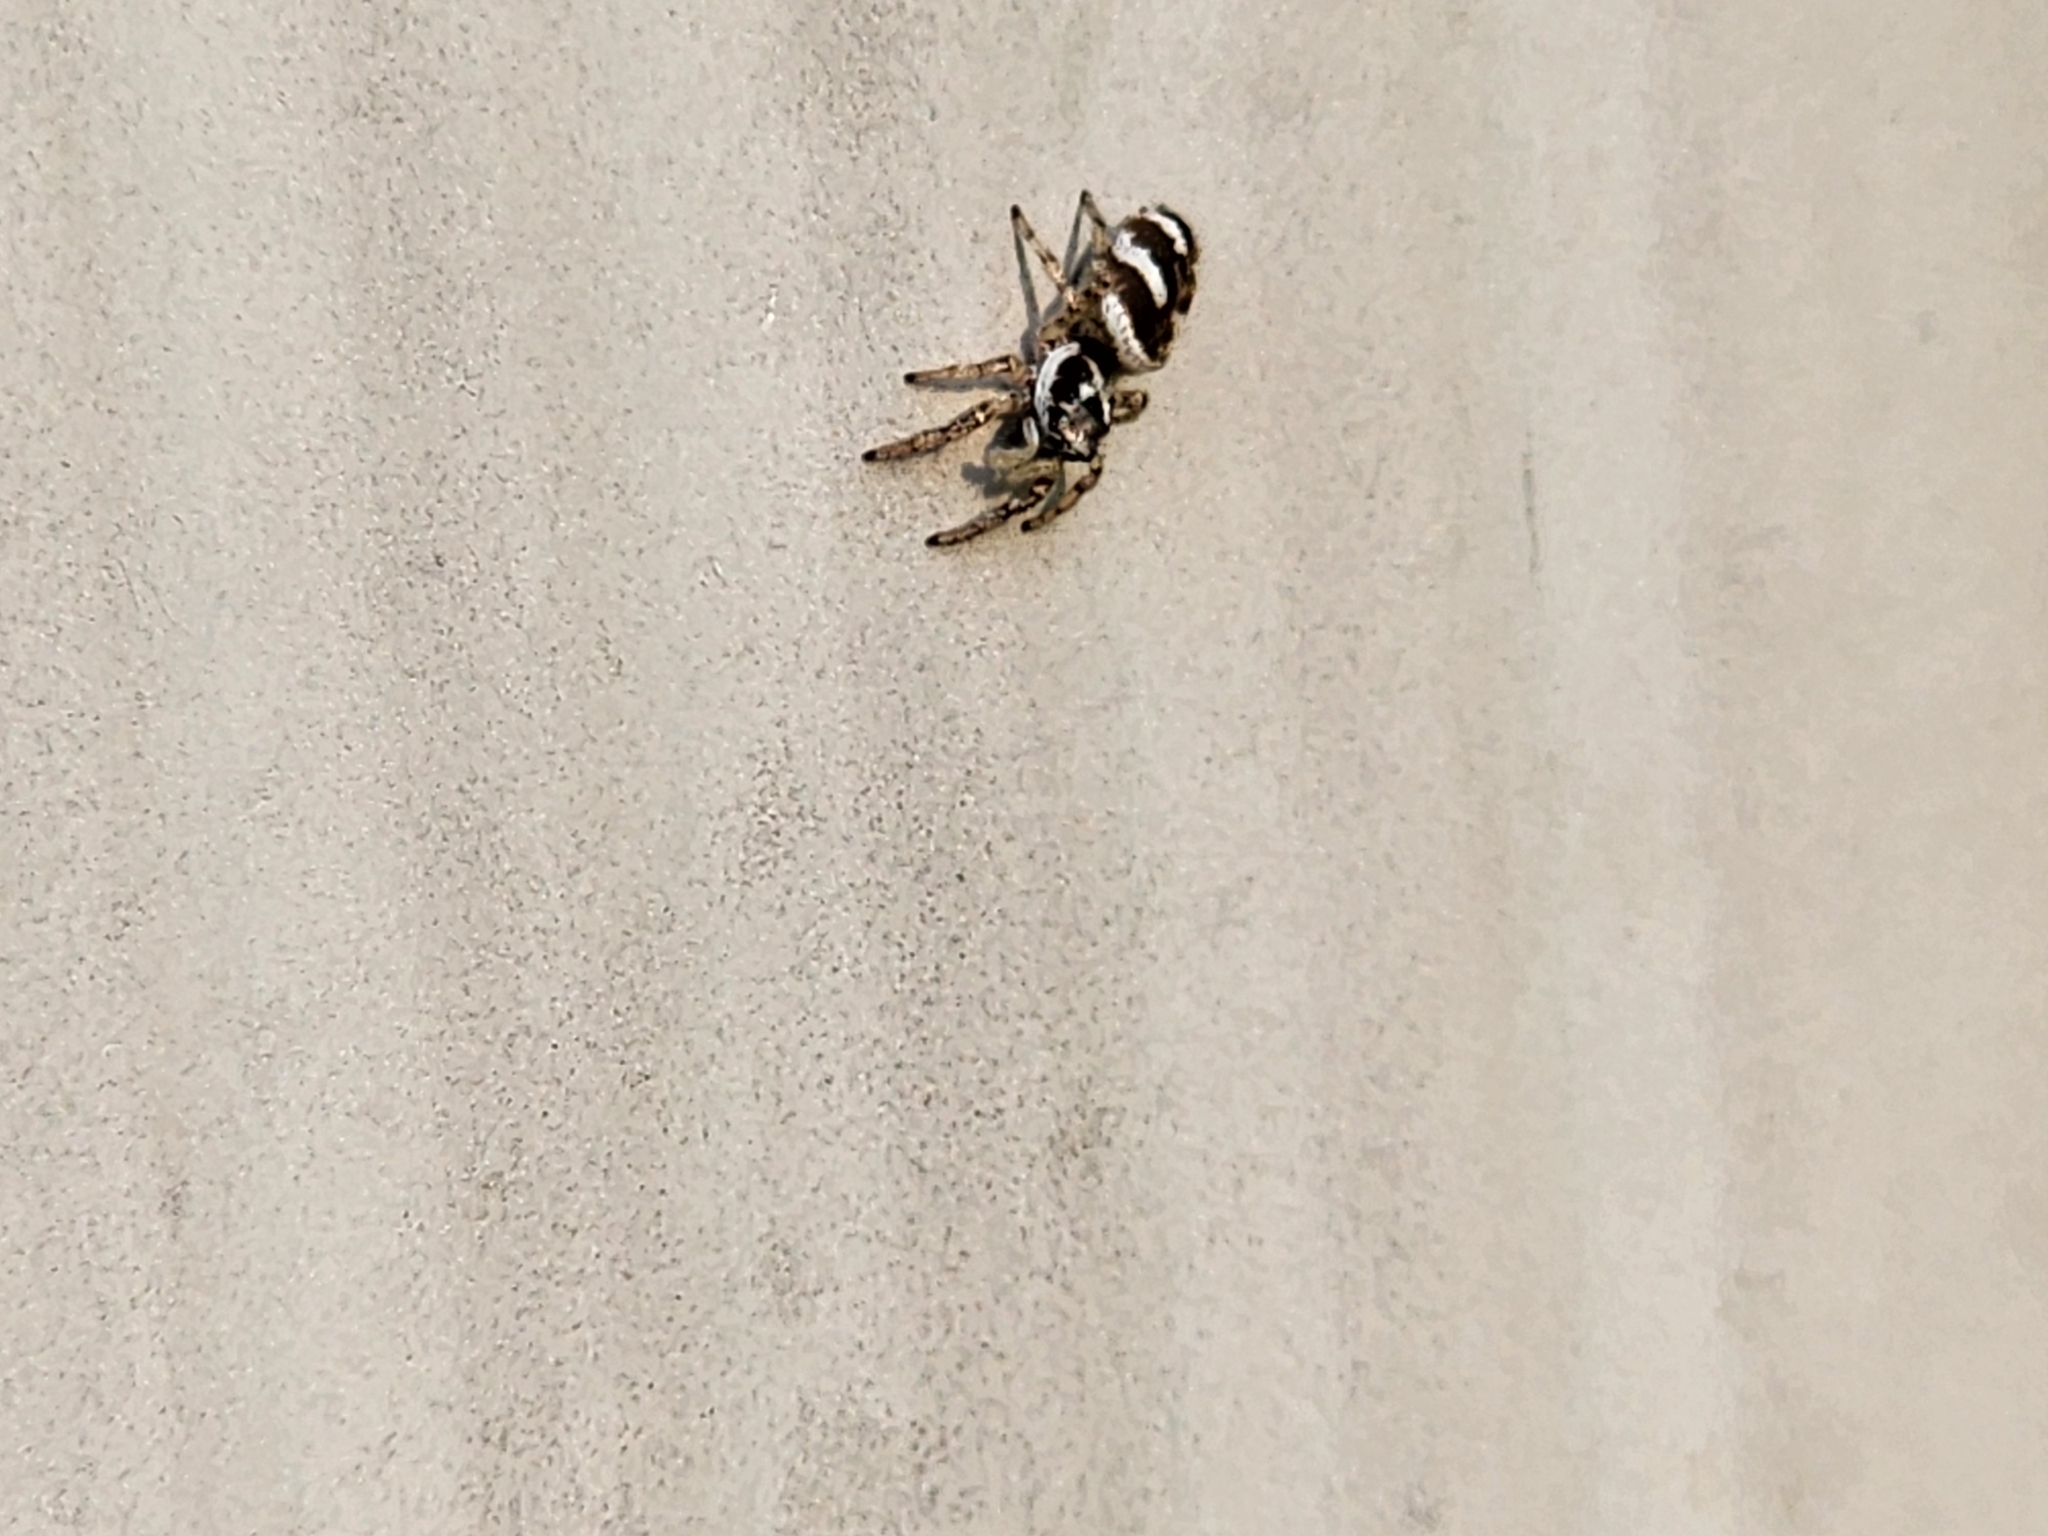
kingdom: Animalia
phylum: Arthropoda
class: Arachnida
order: Araneae
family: Salticidae
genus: Salticus
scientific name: Salticus scenicus
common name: Zebra jumper
